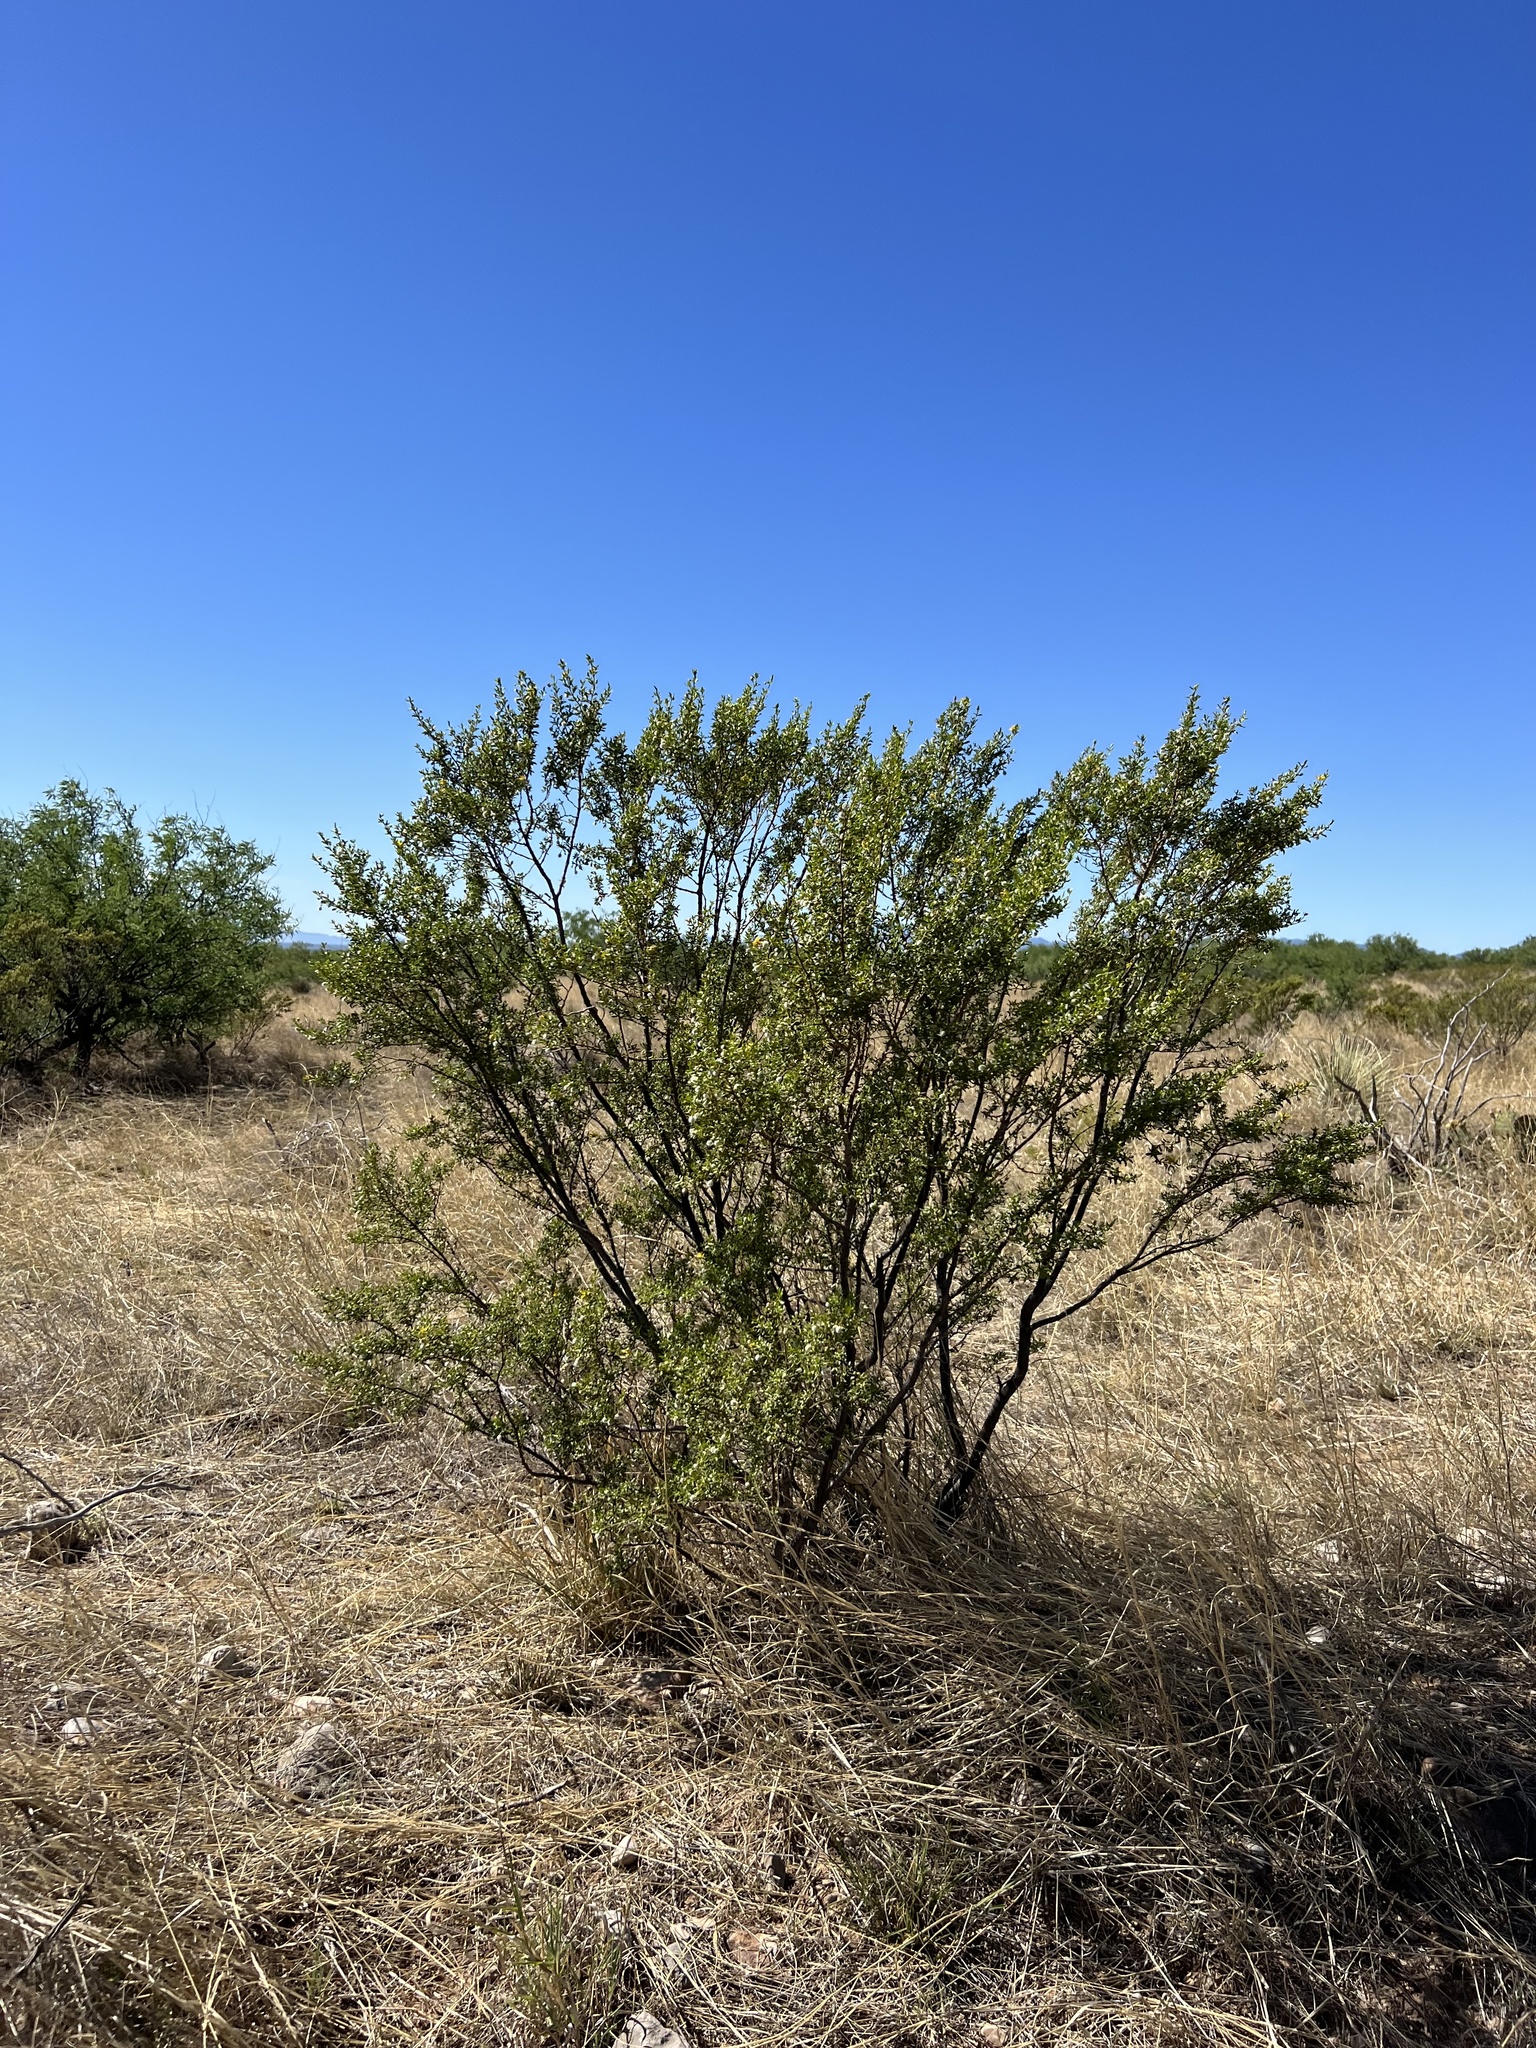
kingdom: Plantae
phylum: Tracheophyta
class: Magnoliopsida
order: Zygophyllales
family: Zygophyllaceae
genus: Larrea
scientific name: Larrea tridentata
